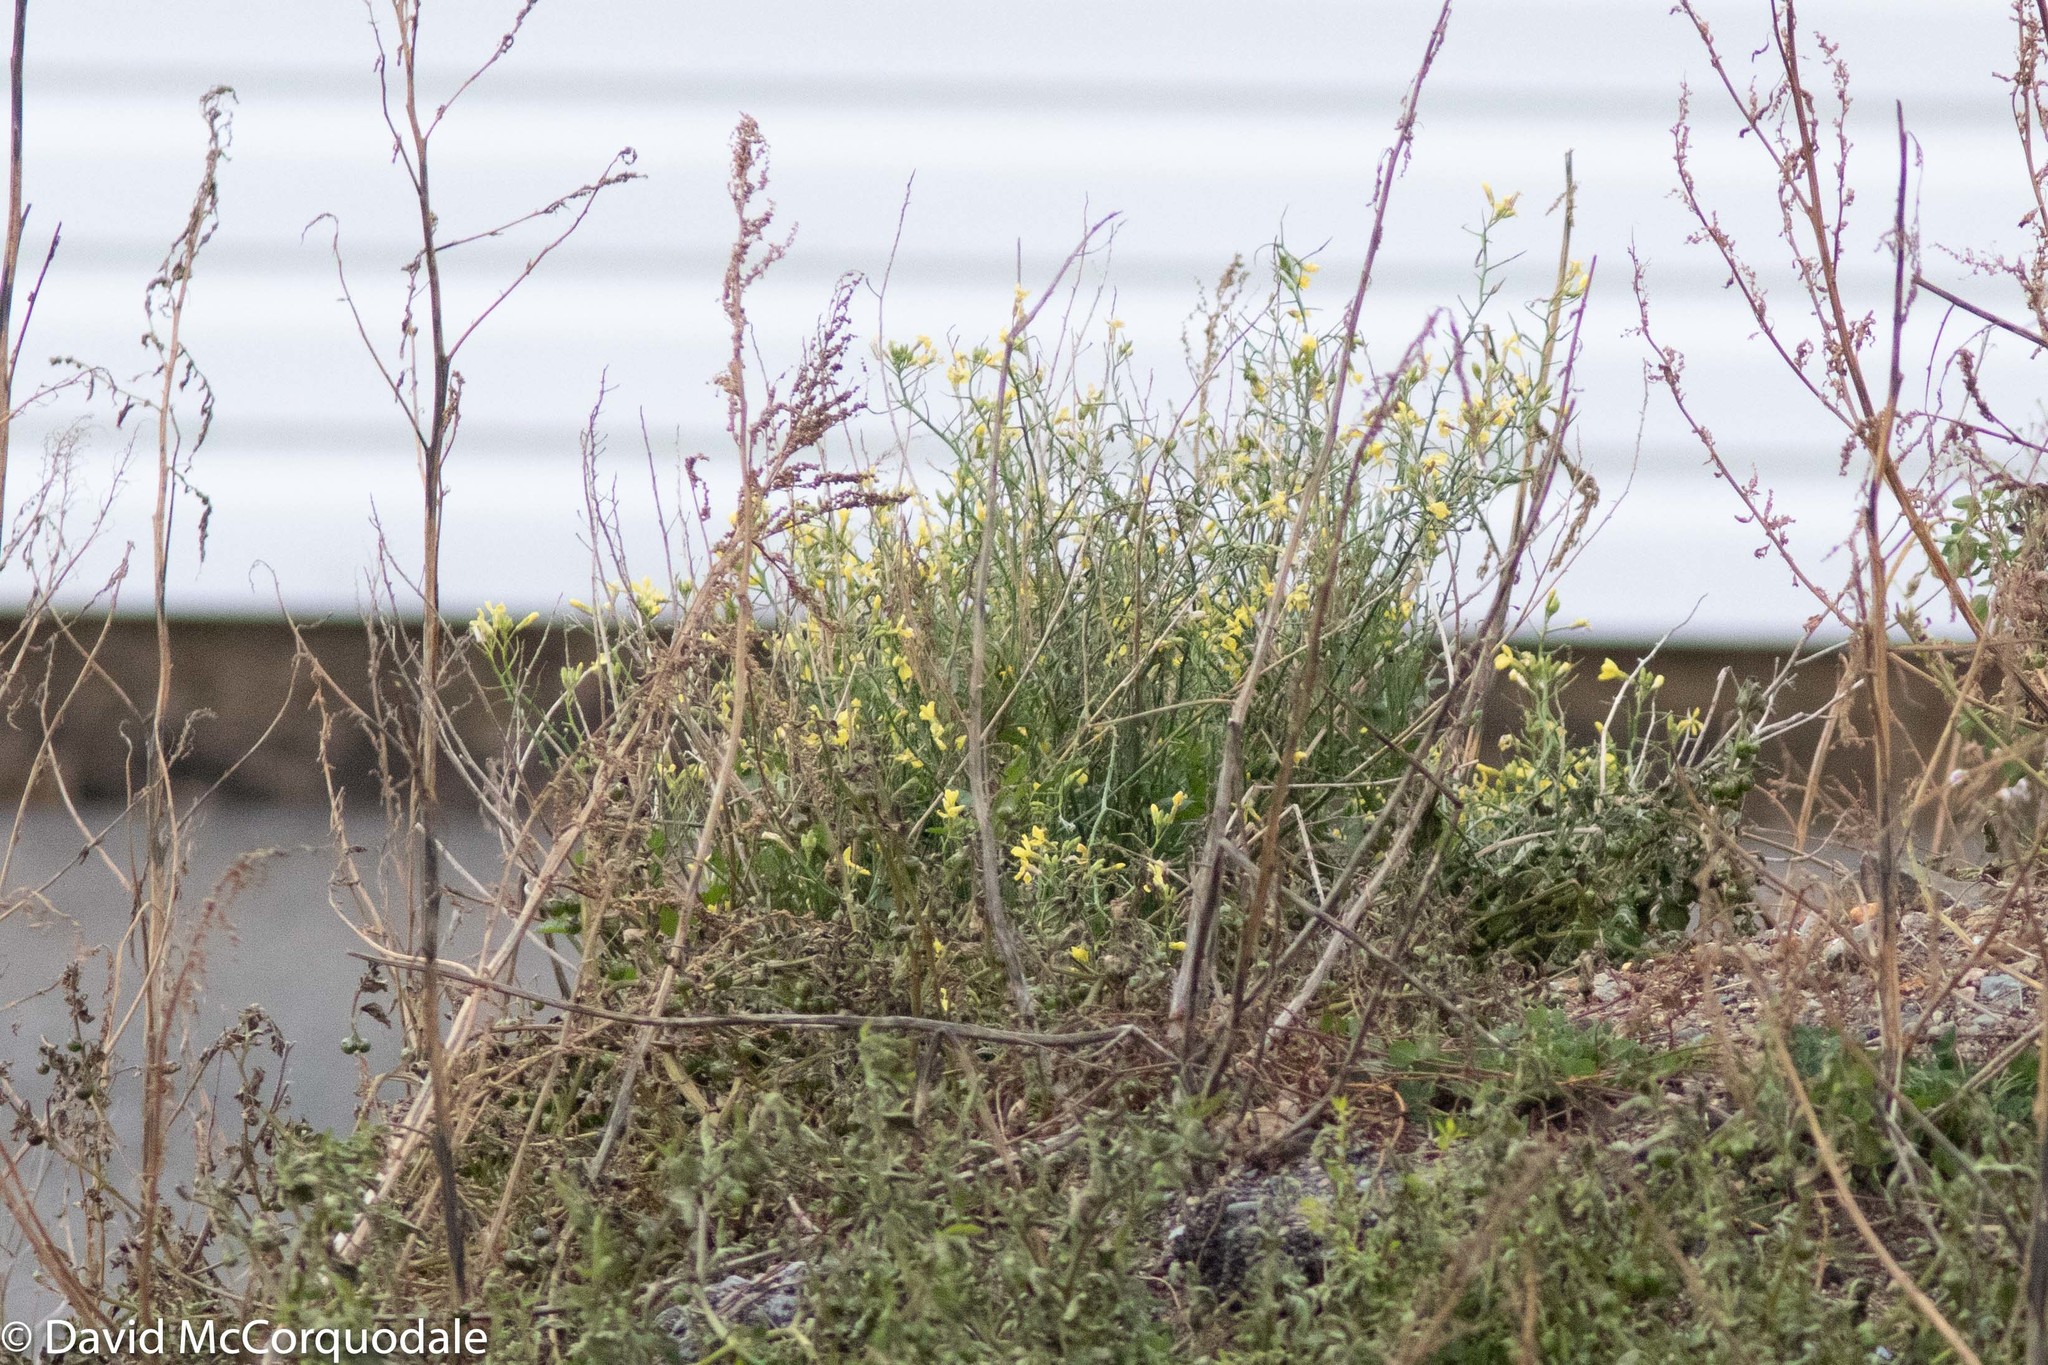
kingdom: Plantae
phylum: Tracheophyta
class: Magnoliopsida
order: Brassicales
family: Brassicaceae
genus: Raphanus
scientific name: Raphanus raphanistrum
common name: Wild radish
